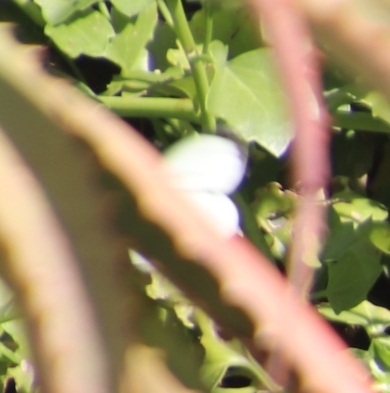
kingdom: Animalia
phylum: Arthropoda
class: Insecta
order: Lepidoptera
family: Pieridae
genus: Pieris
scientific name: Pieris brassicae
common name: Large white
